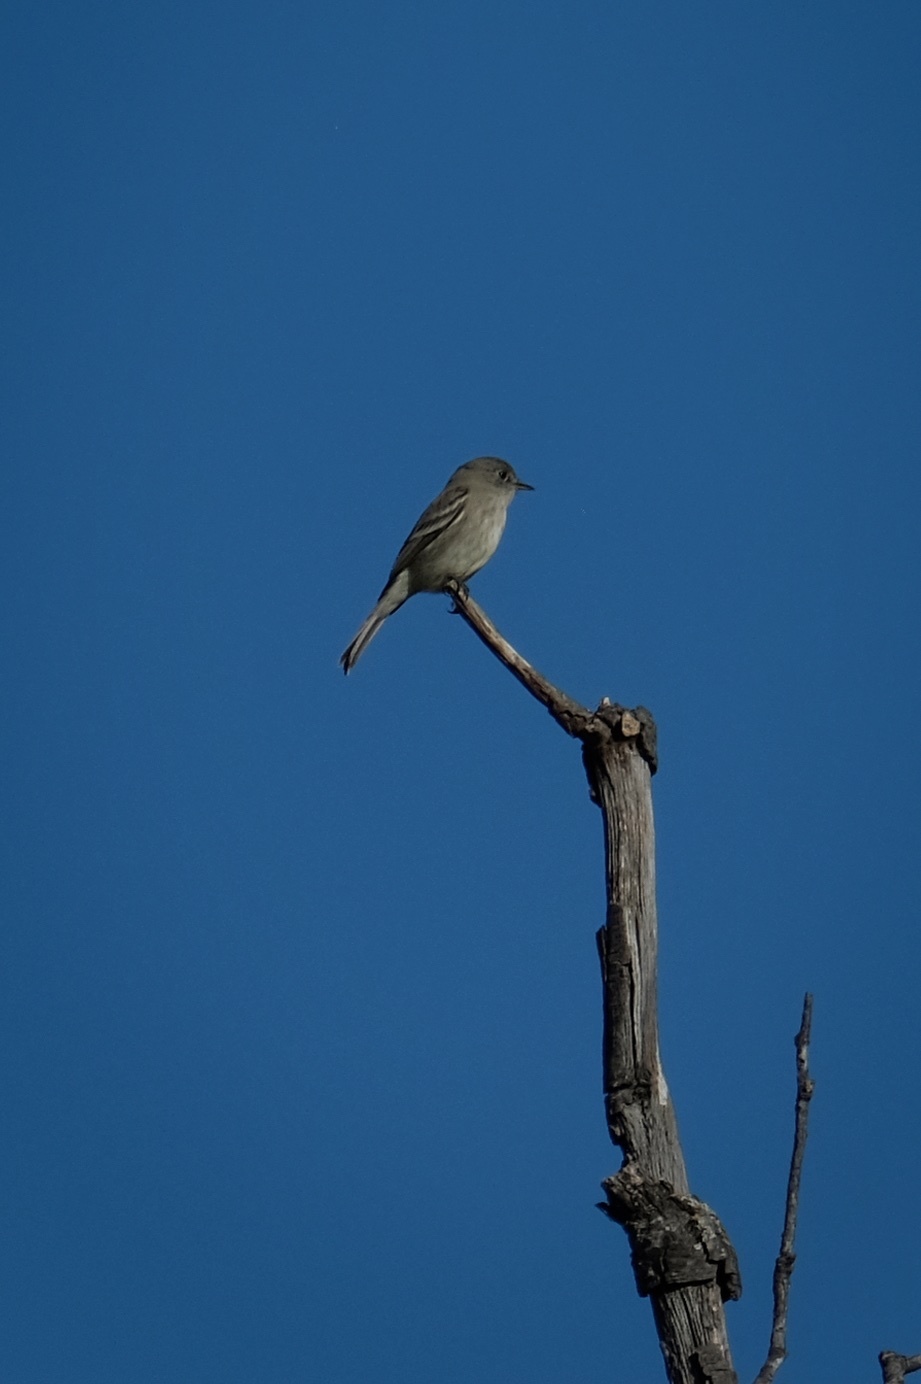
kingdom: Animalia
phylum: Chordata
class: Aves
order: Passeriformes
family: Tyrannidae
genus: Empidonax
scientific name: Empidonax wrightii
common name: Gray flycatcher
